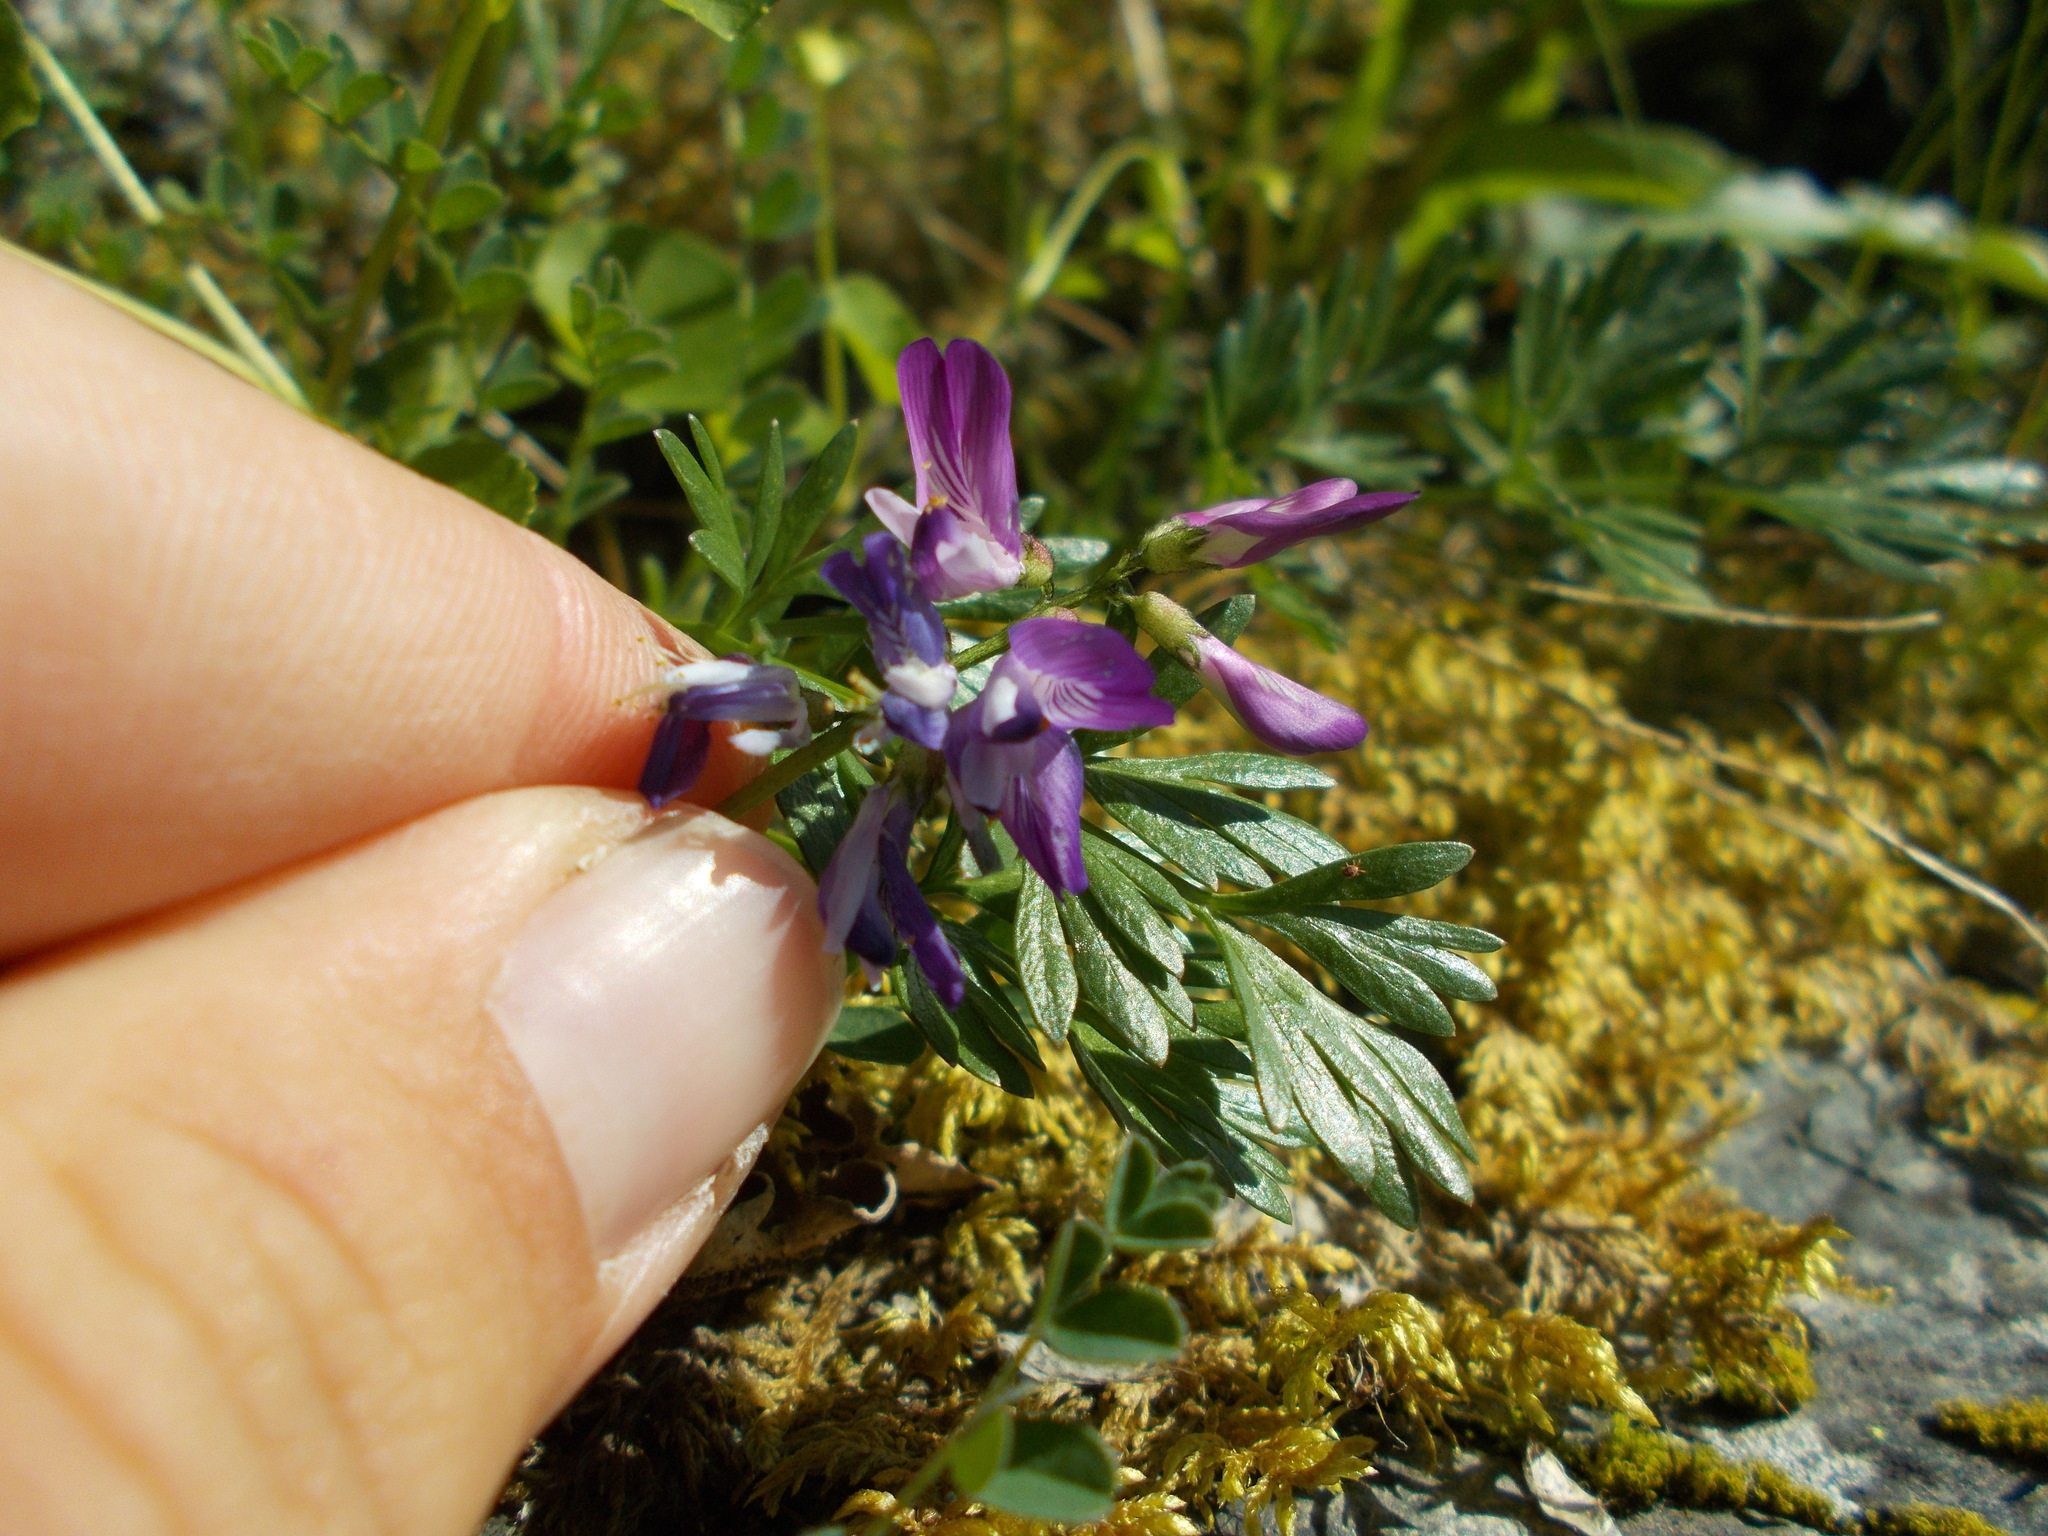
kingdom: Plantae
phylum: Tracheophyta
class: Magnoliopsida
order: Fabales
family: Fabaceae
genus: Astragalus
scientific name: Astragalus alpinus
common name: Alpine milk-vetch
